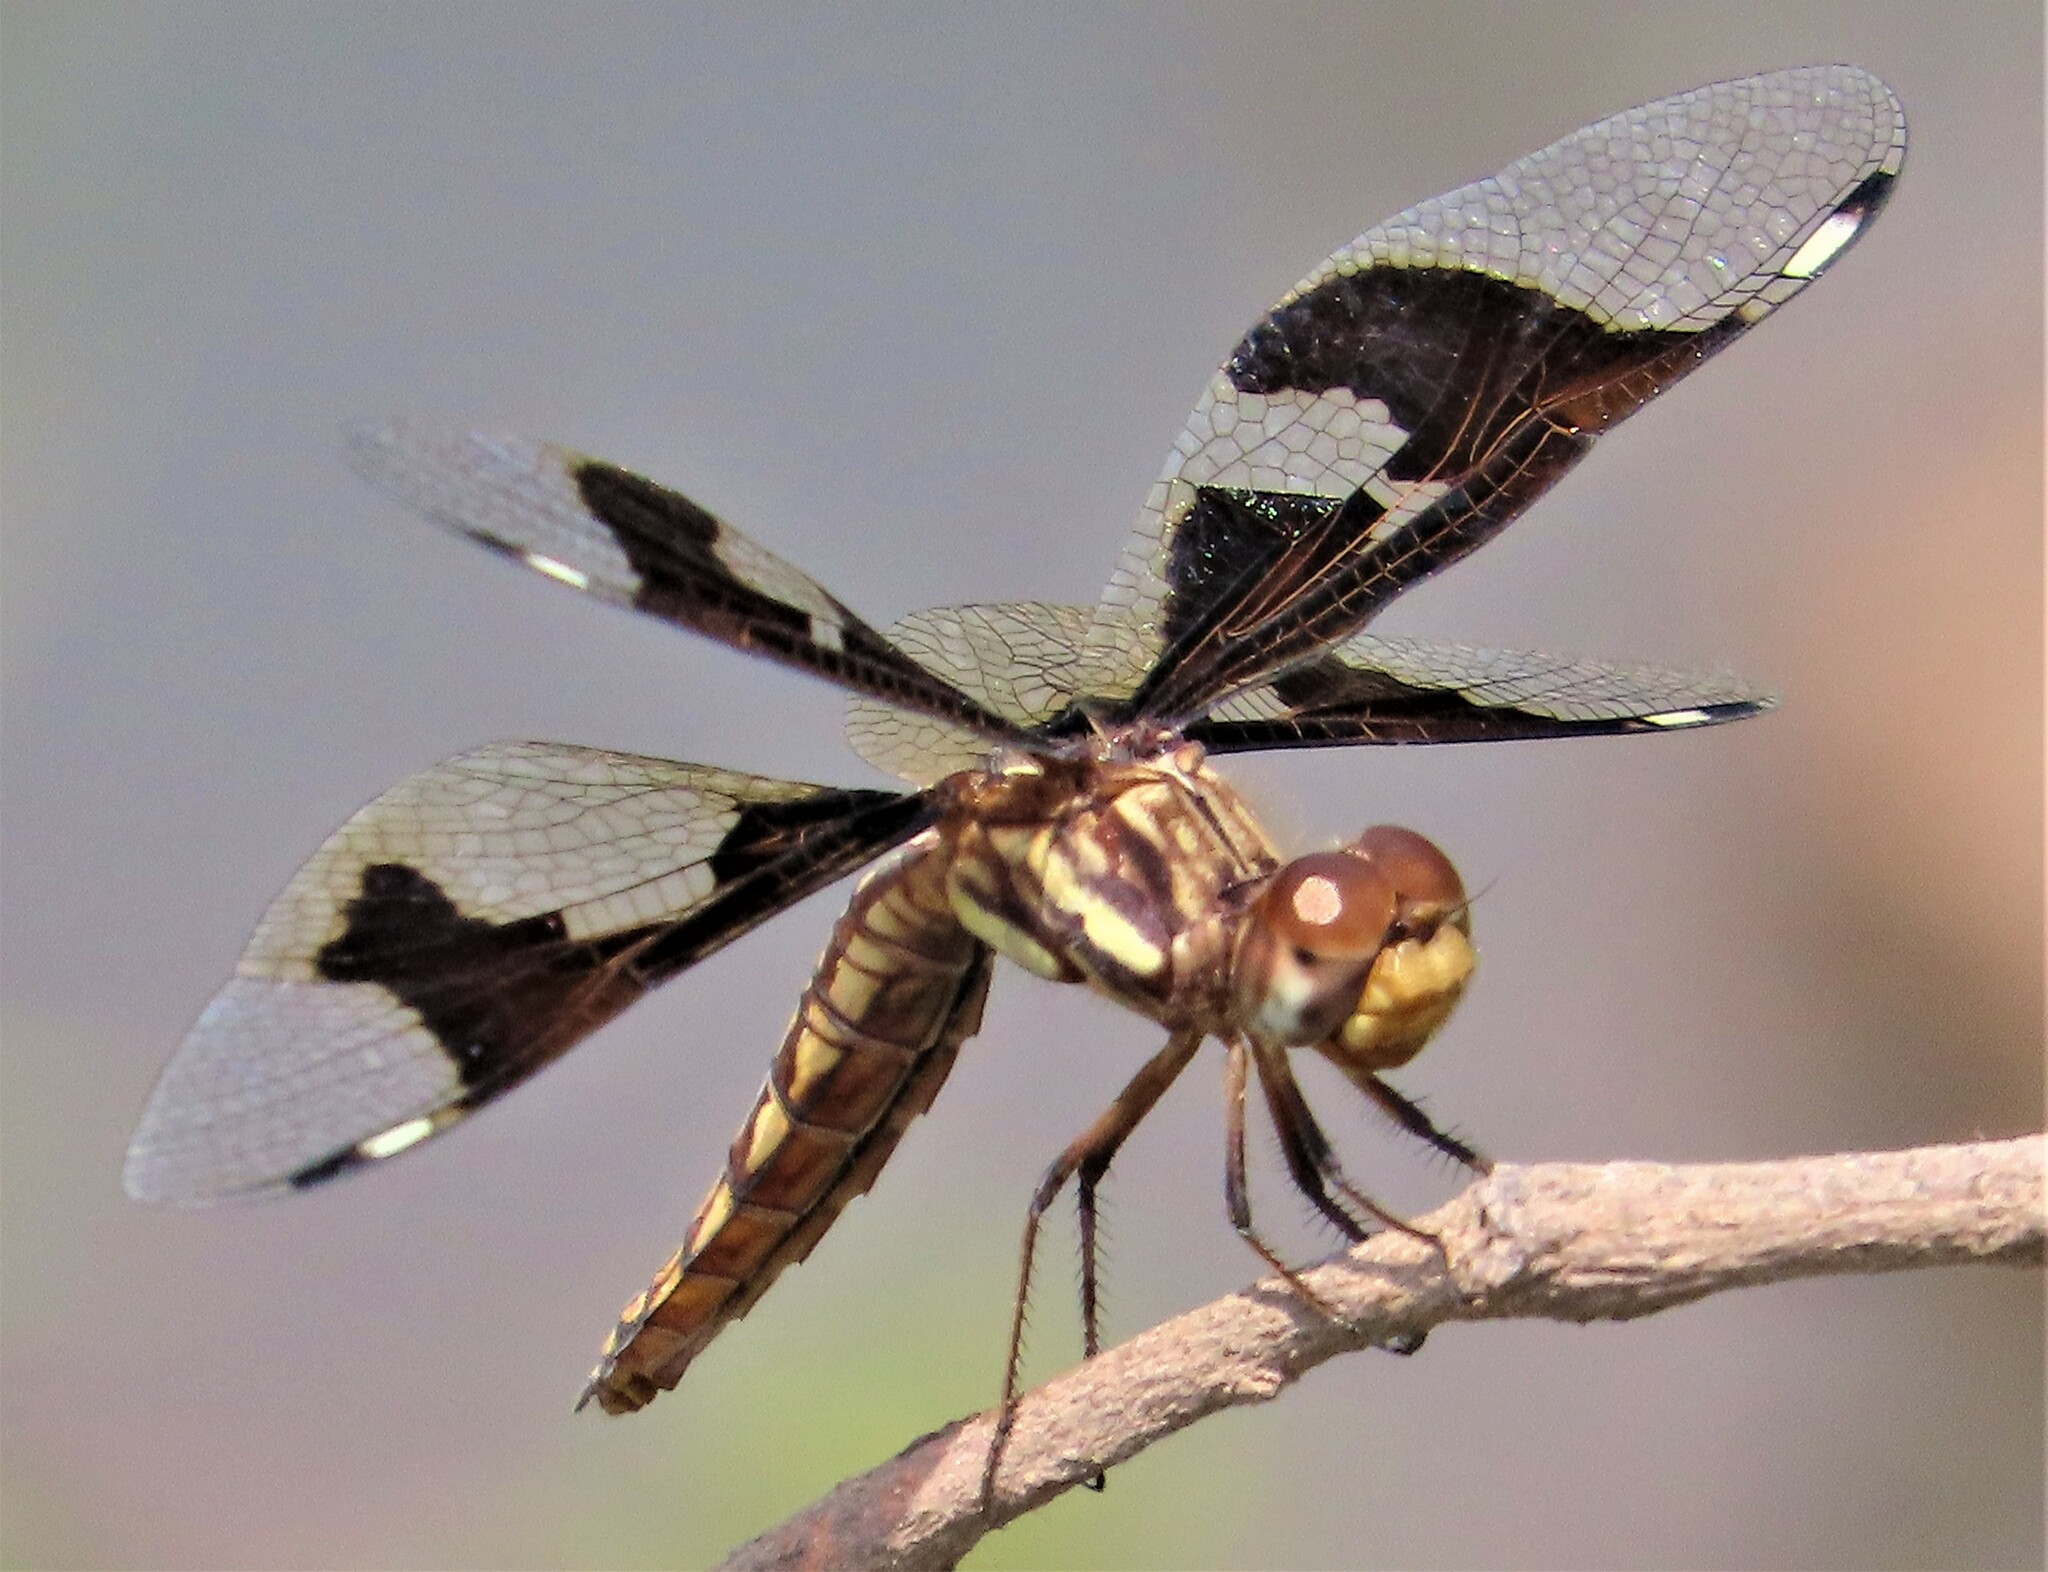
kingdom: Animalia
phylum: Arthropoda
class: Insecta
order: Odonata
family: Libellulidae
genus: Palpopleura
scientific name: Palpopleura lucia
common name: Lucia widow
